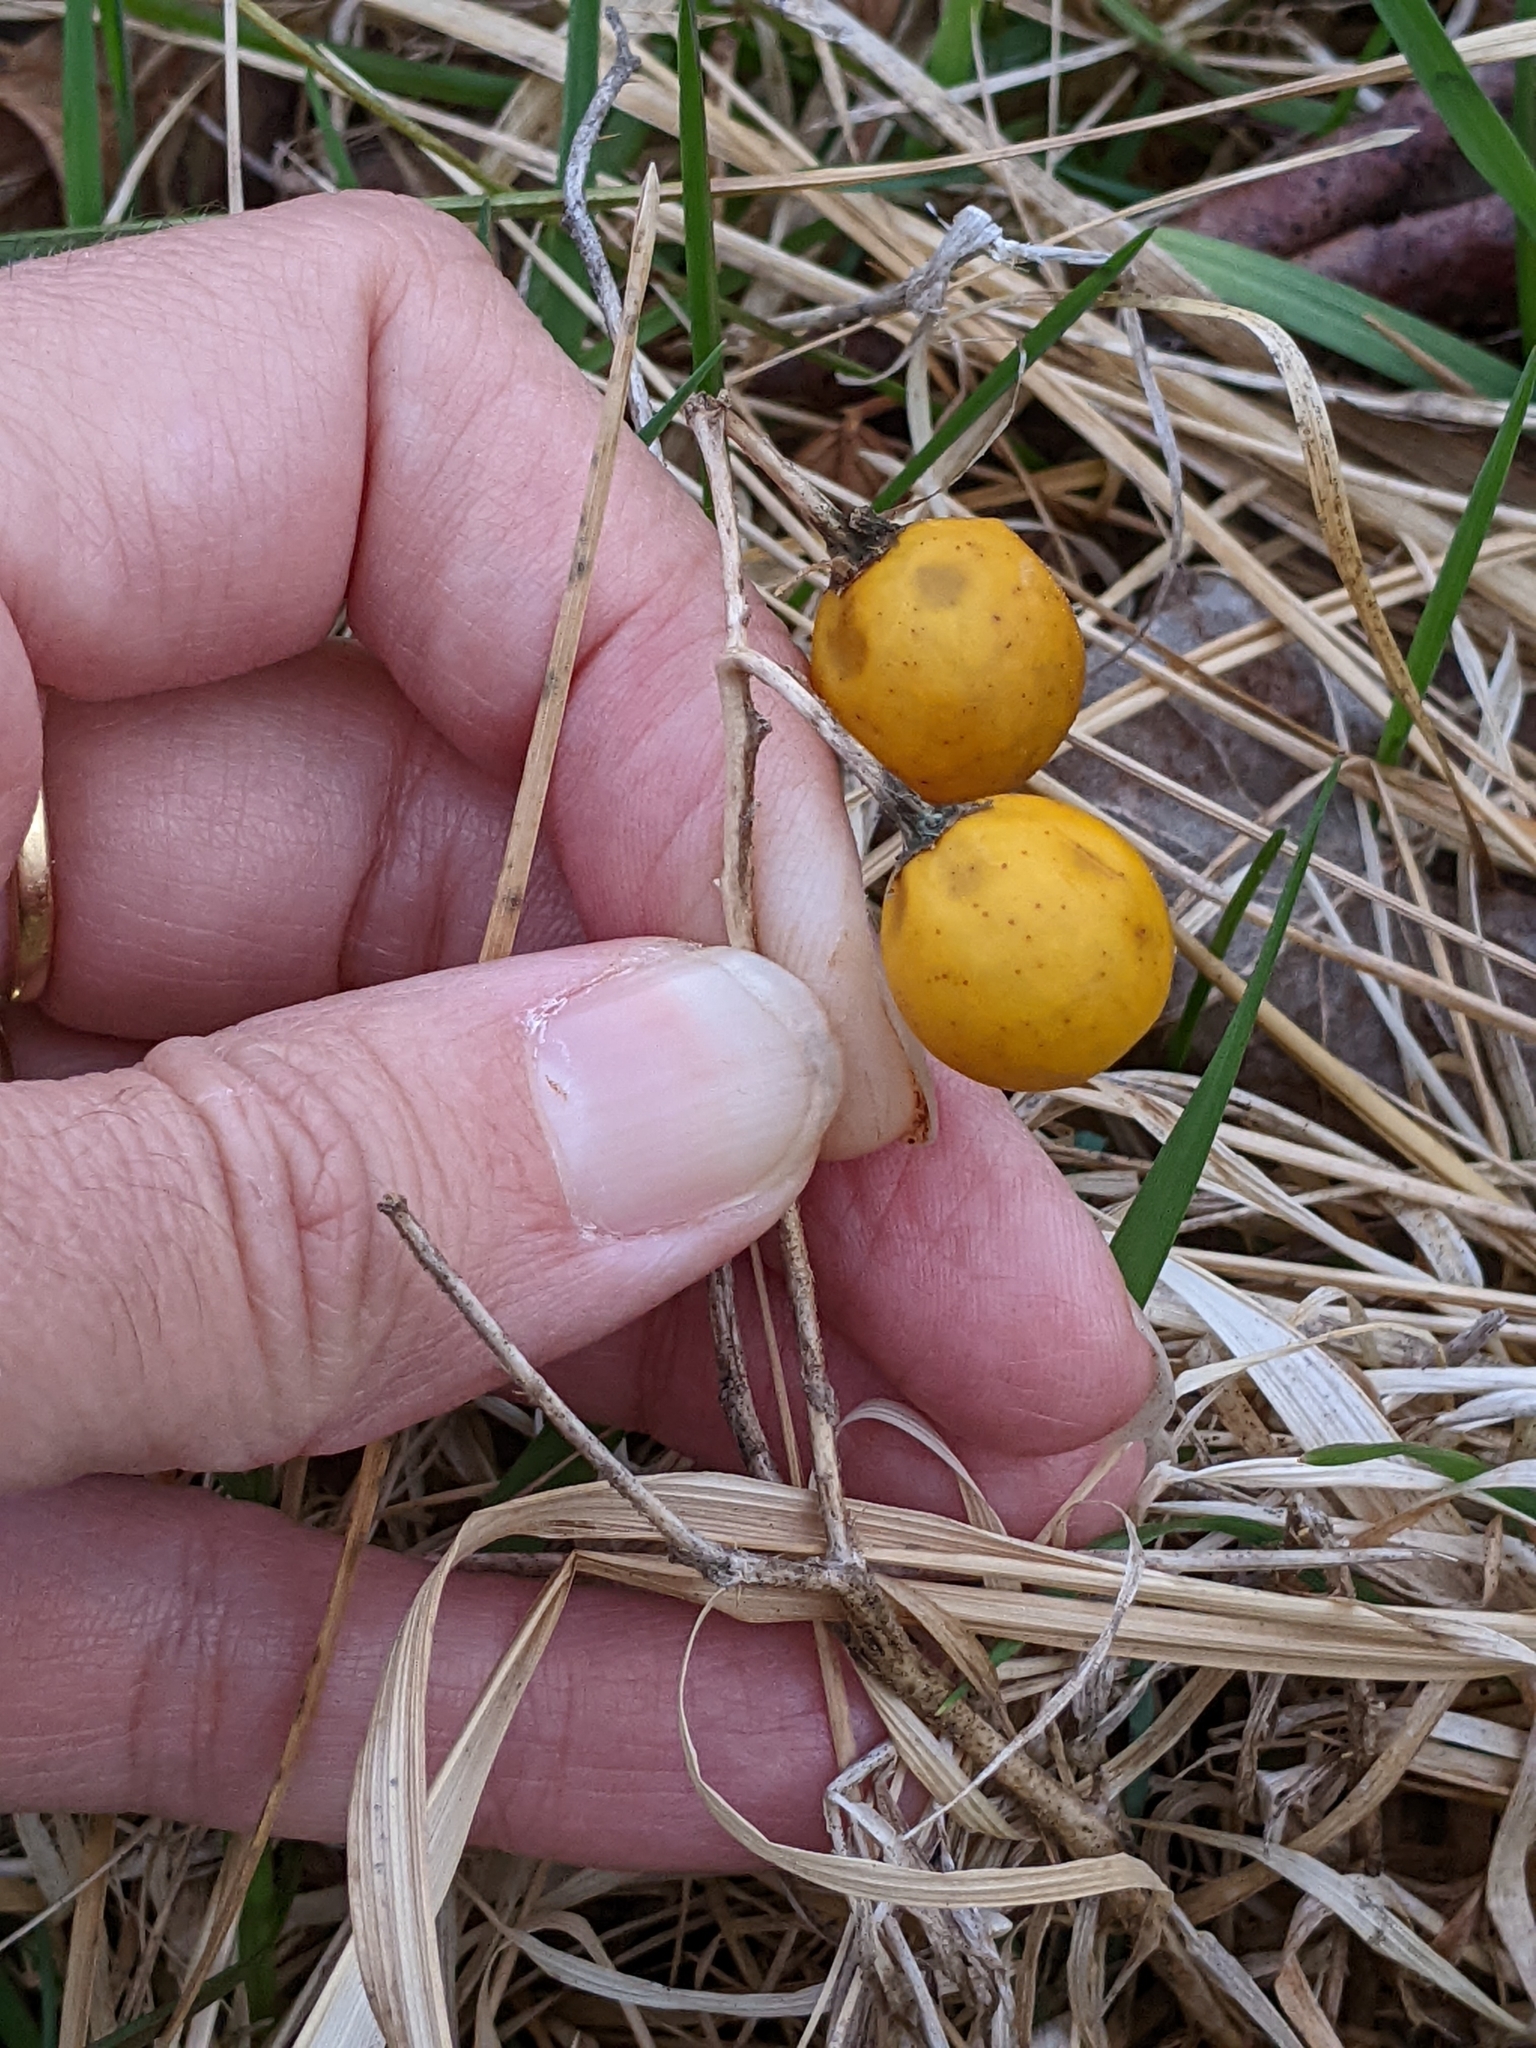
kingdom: Plantae
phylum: Tracheophyta
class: Magnoliopsida
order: Solanales
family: Solanaceae
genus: Solanum
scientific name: Solanum carolinense
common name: Horse-nettle
